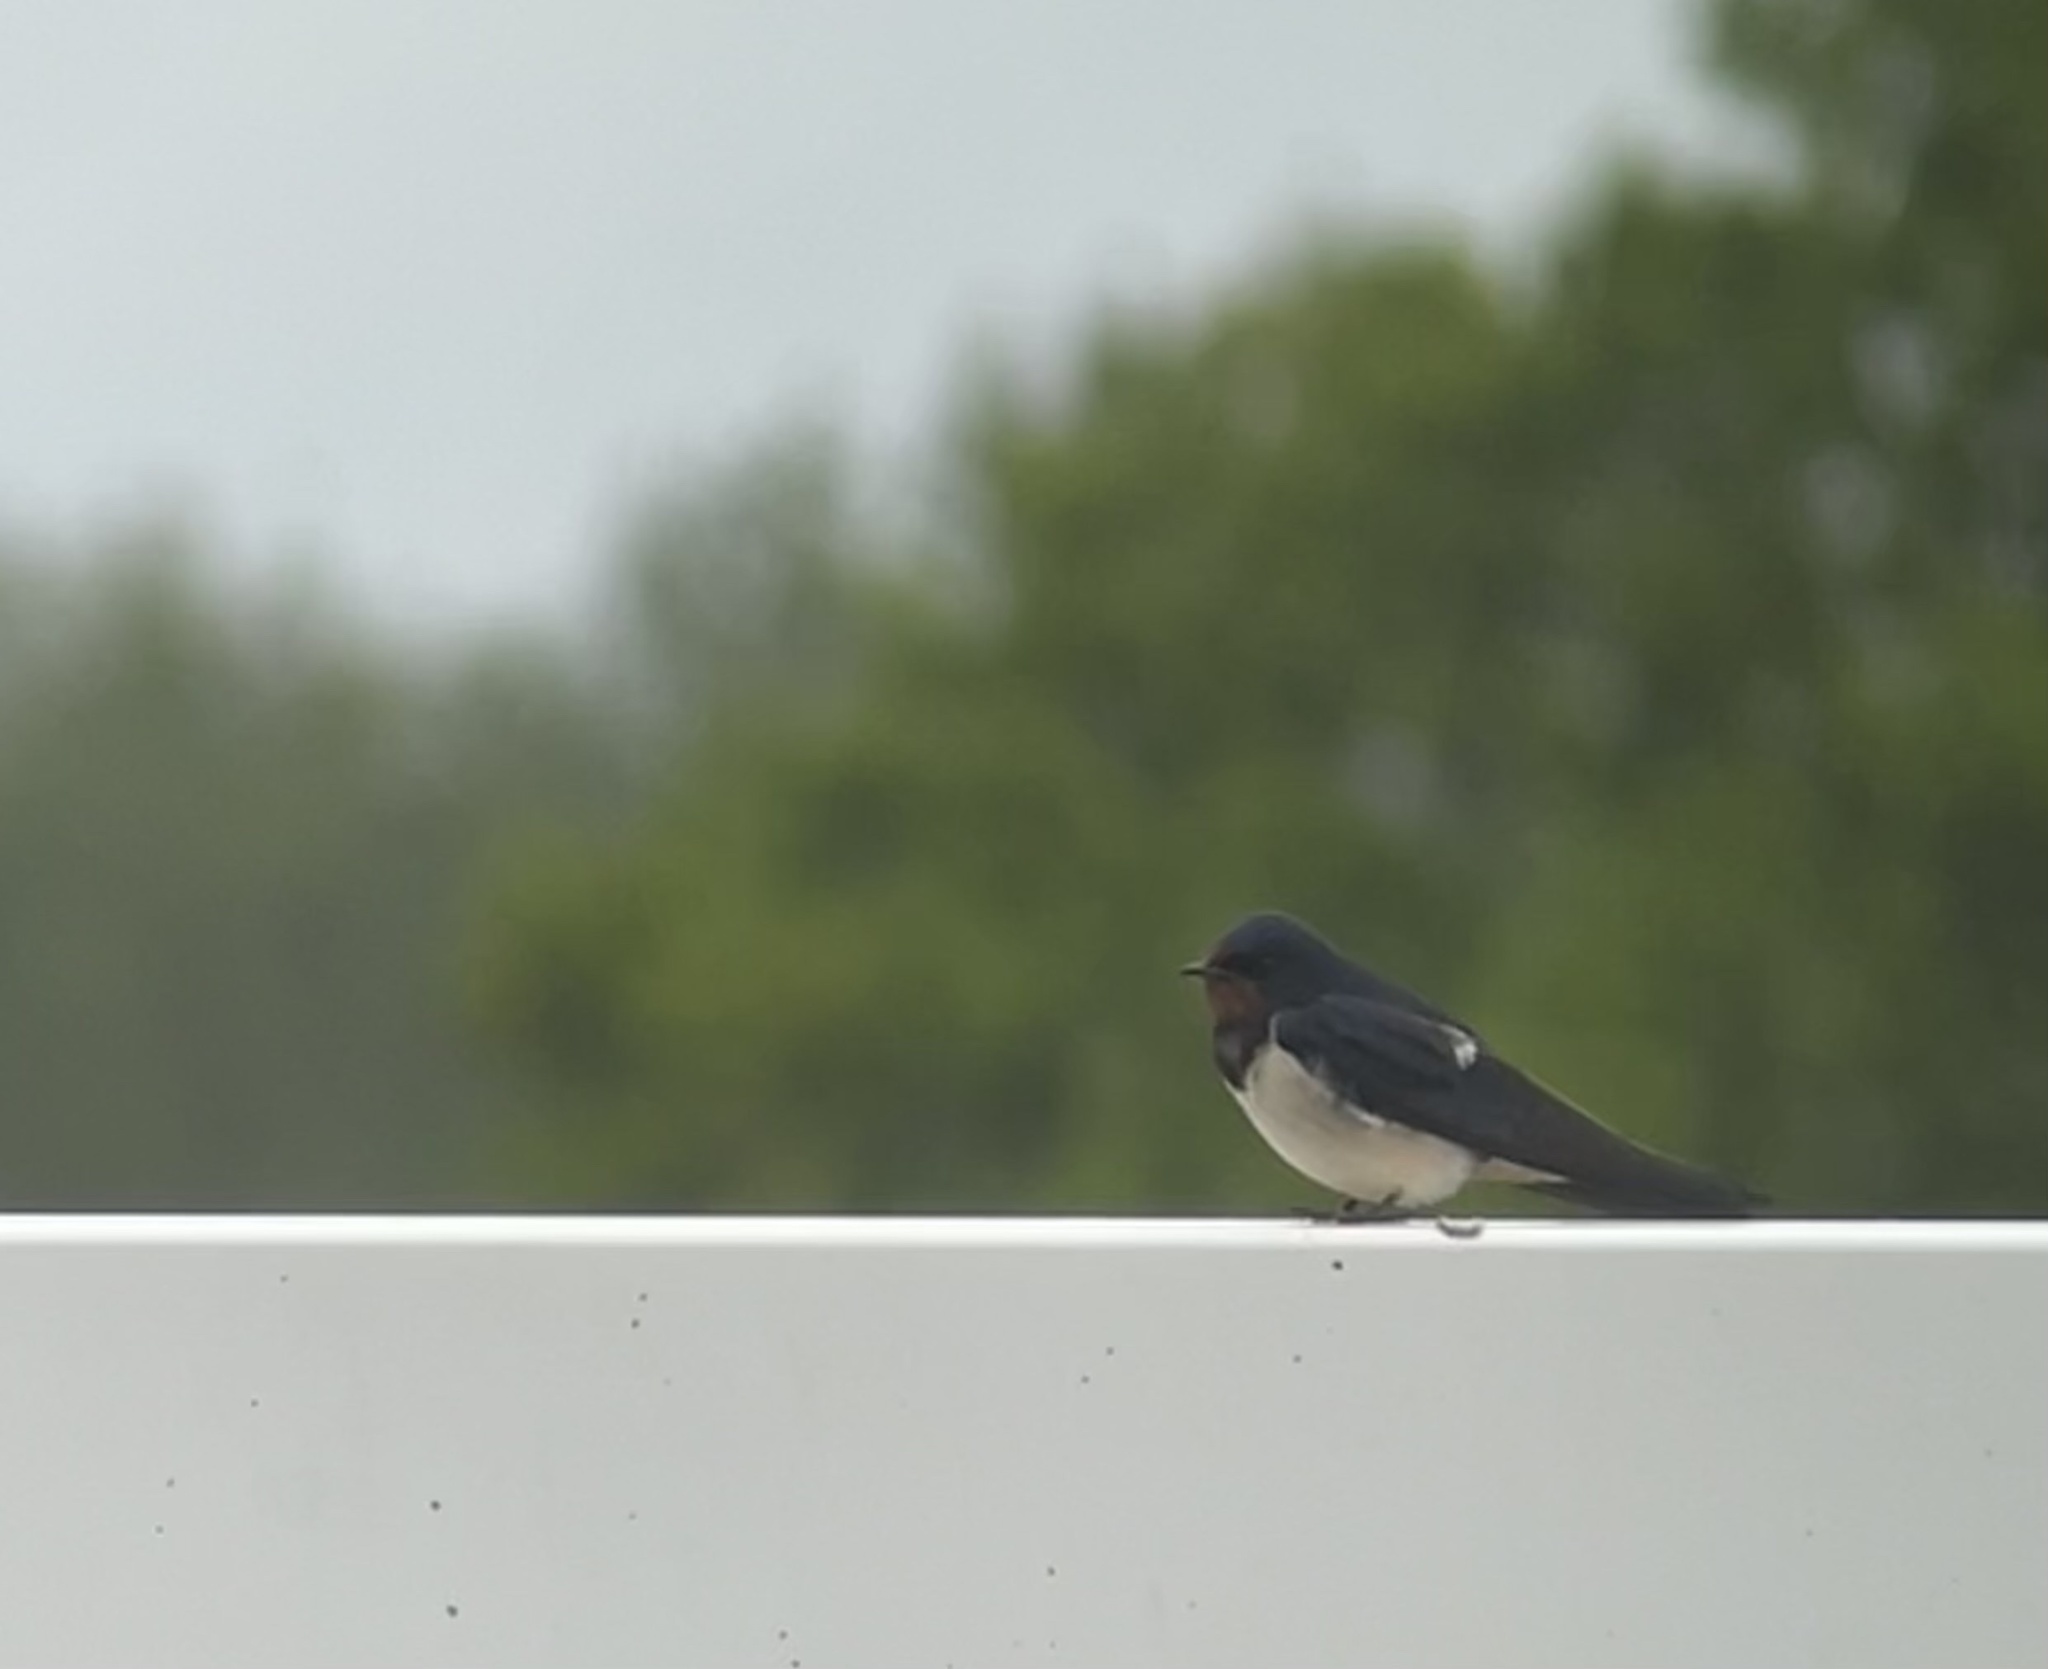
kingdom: Animalia
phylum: Chordata
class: Aves
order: Passeriformes
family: Hirundinidae
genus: Hirundo
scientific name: Hirundo rustica
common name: Barn swallow
